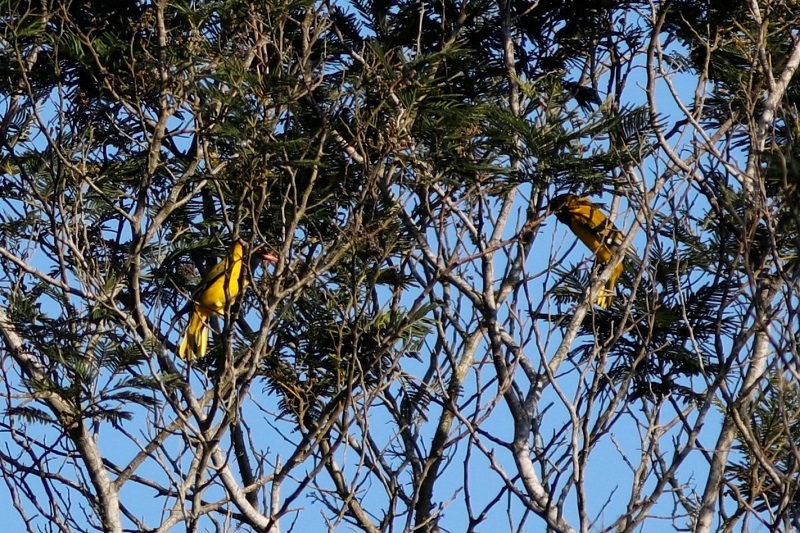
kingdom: Animalia
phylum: Chordata
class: Aves
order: Passeriformes
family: Oriolidae
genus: Oriolus
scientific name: Oriolus larvatus
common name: Black-headed oriole
